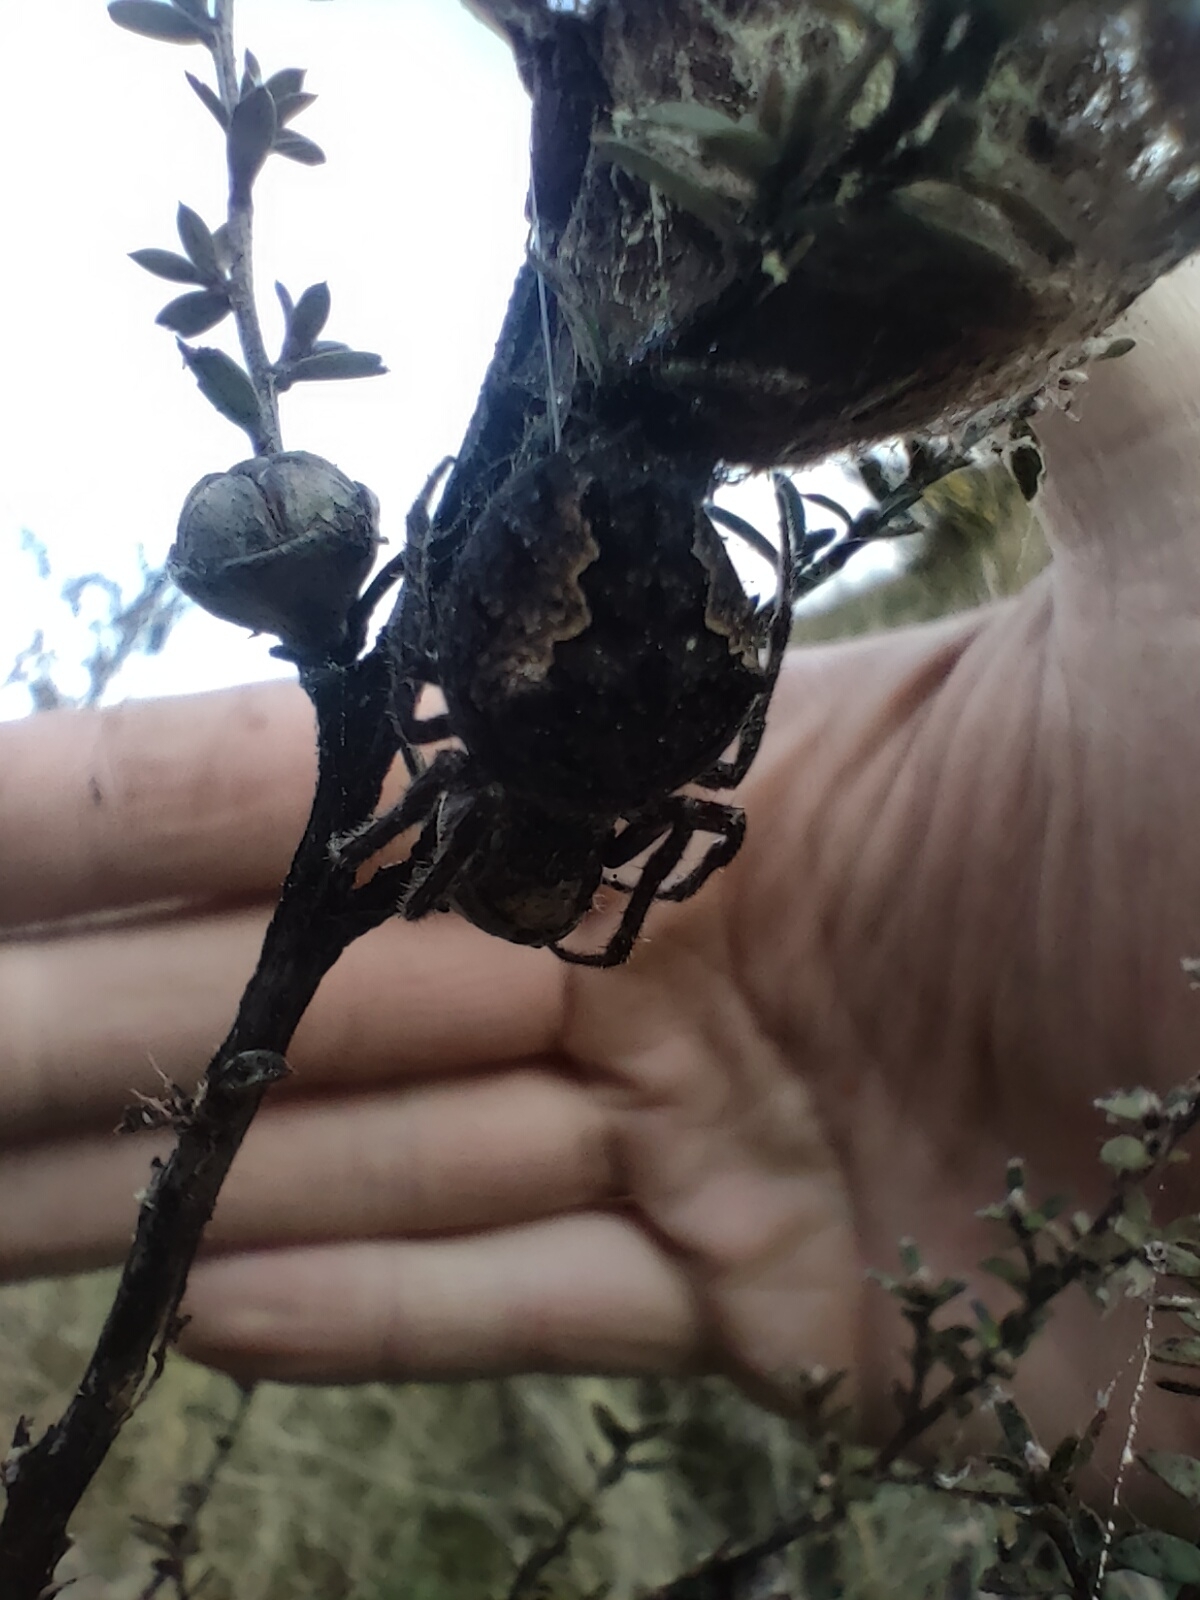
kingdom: Animalia
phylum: Arthropoda
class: Arachnida
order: Araneae
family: Araneidae
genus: Eriophora
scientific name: Eriophora pustulosa
